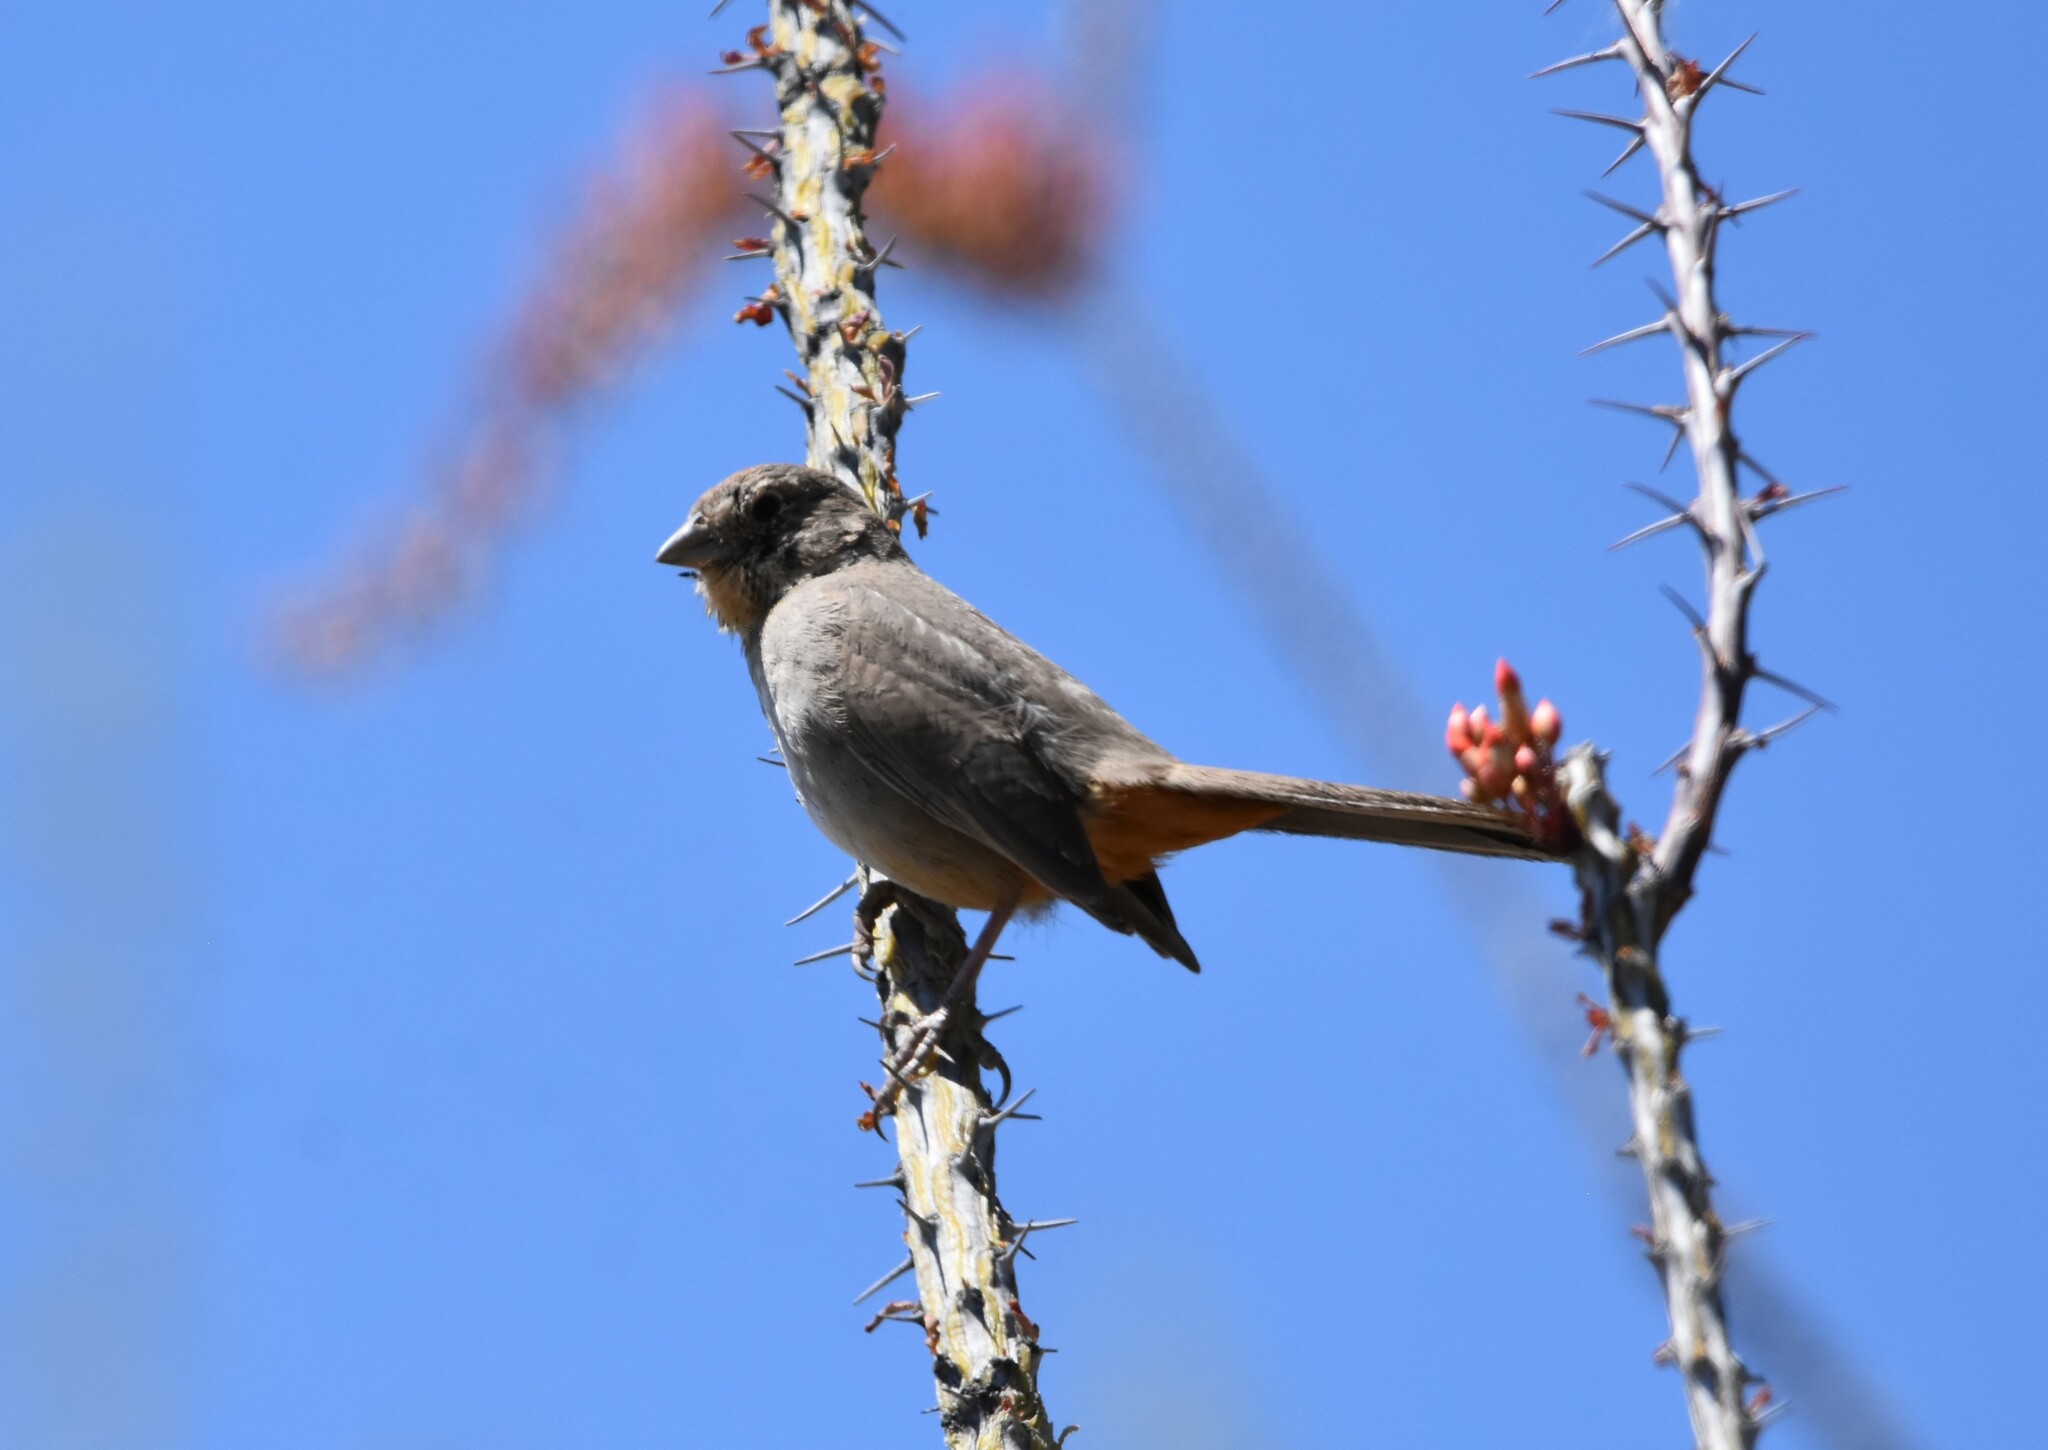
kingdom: Animalia
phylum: Chordata
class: Aves
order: Passeriformes
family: Passerellidae
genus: Melozone
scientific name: Melozone fusca
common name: Canyon towhee
